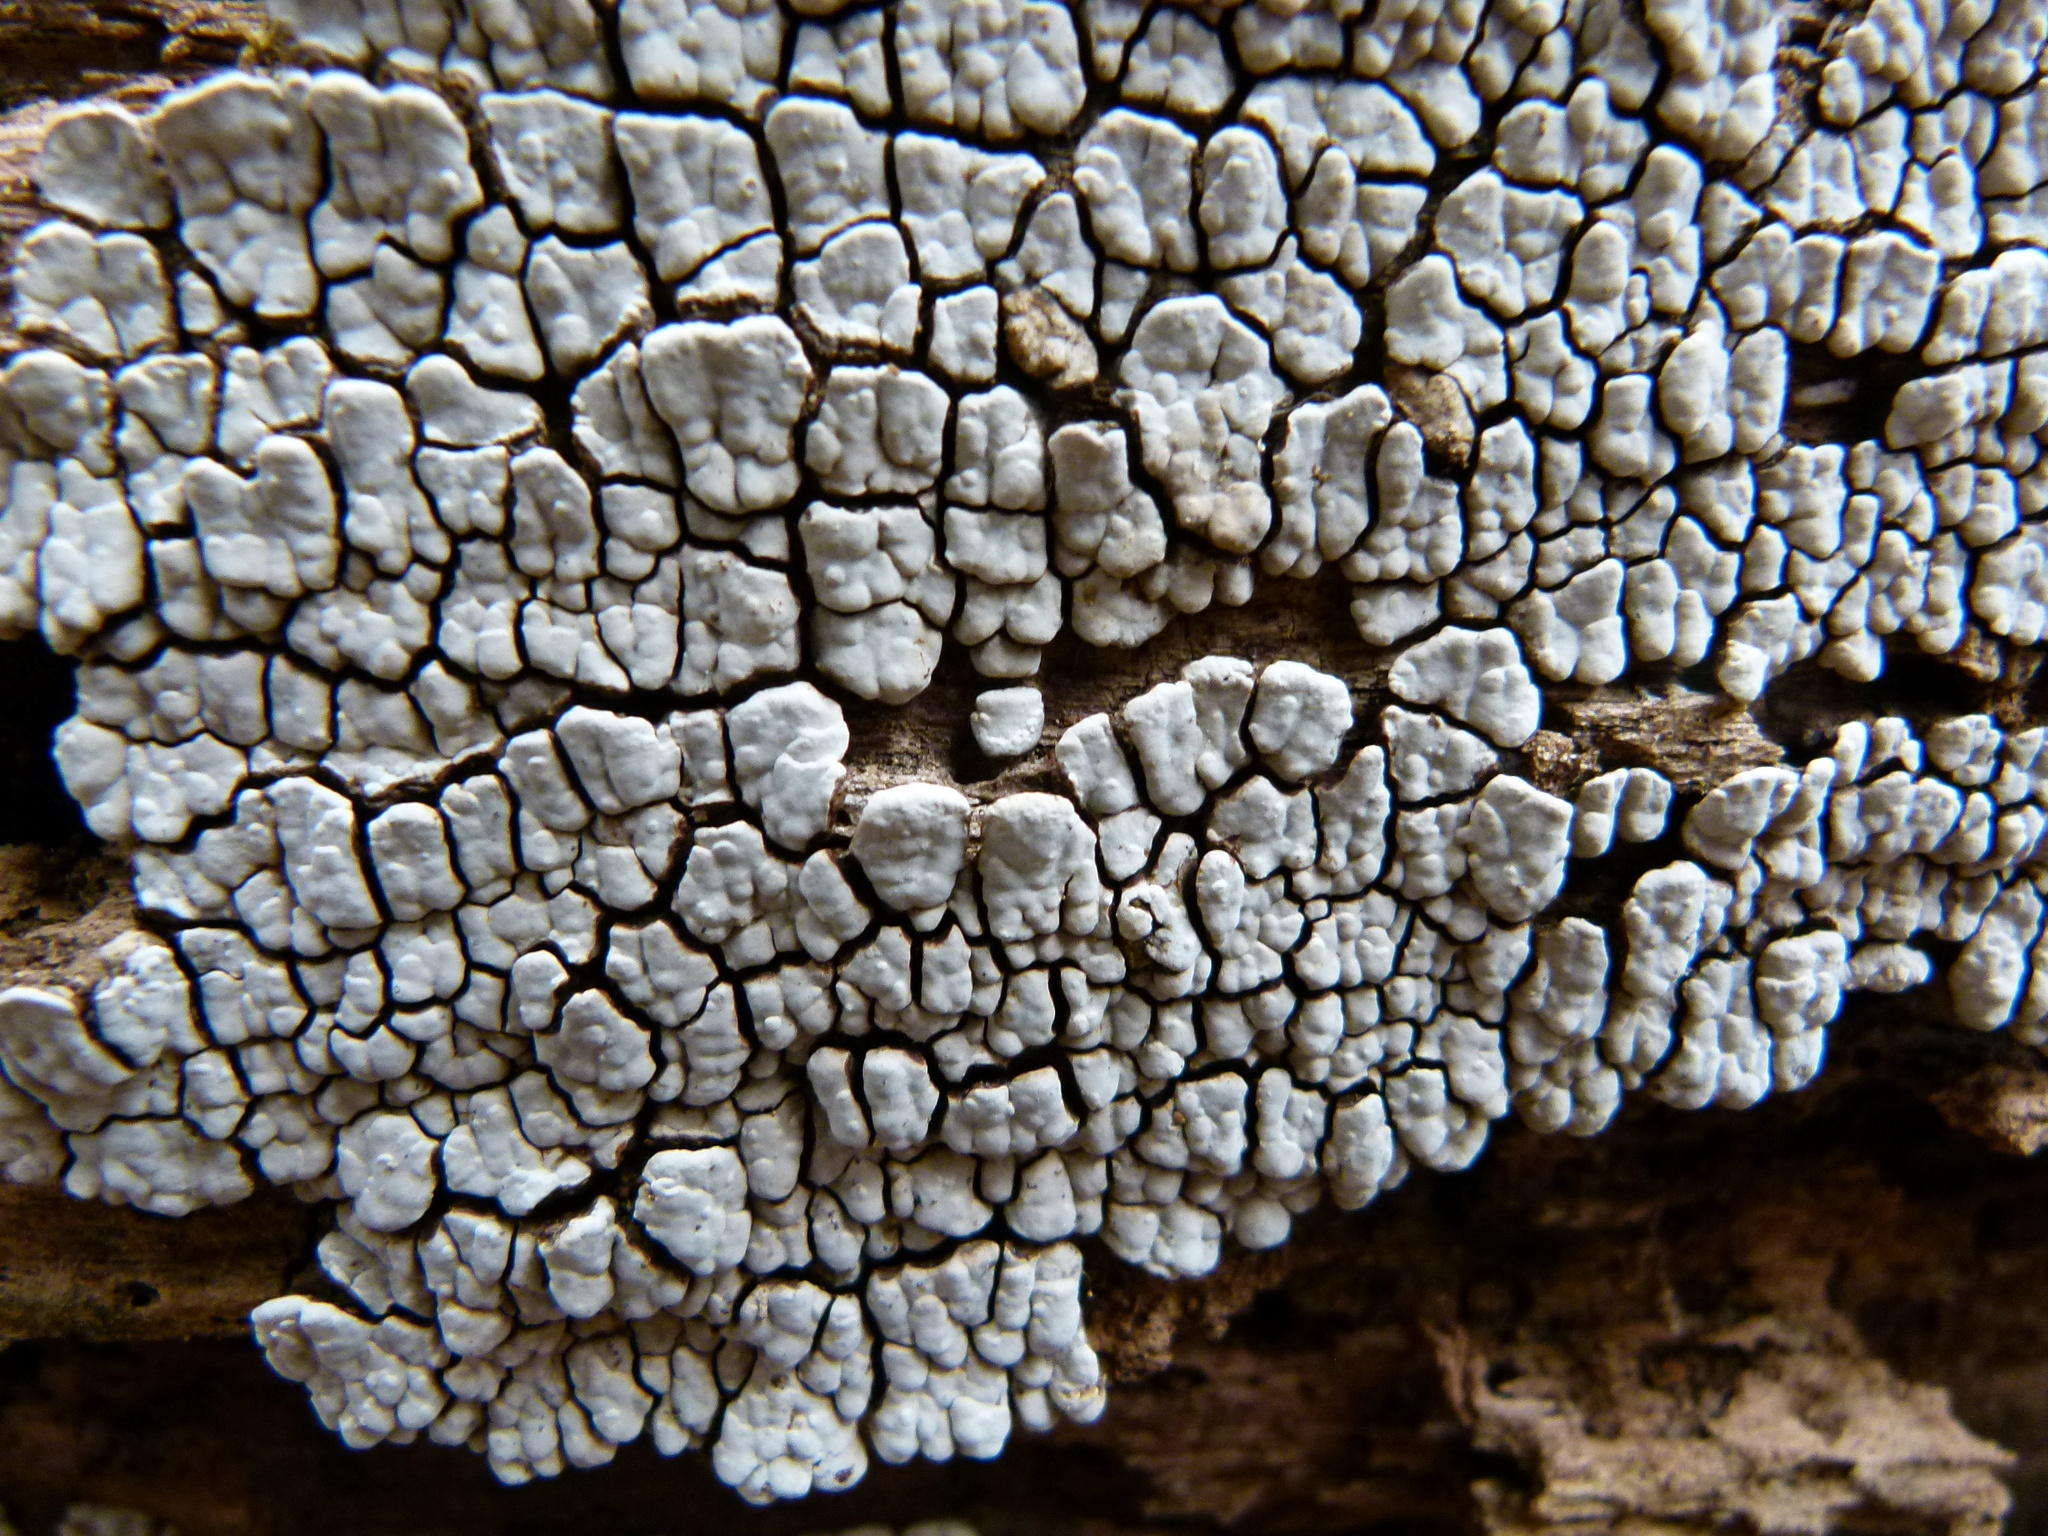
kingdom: Fungi
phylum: Basidiomycota
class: Agaricomycetes
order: Russulales
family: Stereaceae
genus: Xylobolus
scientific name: Xylobolus frustulatus
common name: Ceramic parchment
